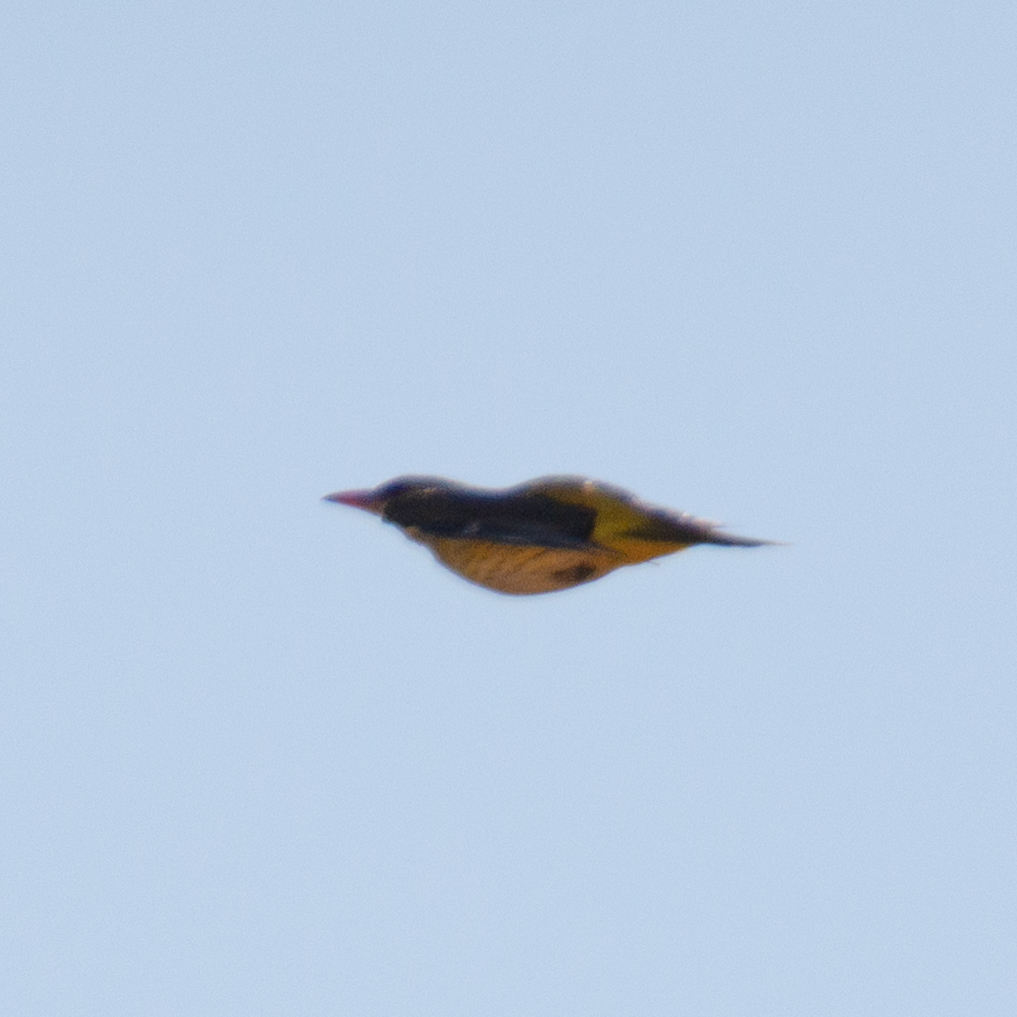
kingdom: Animalia
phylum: Chordata
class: Aves
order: Passeriformes
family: Oriolidae
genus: Oriolus
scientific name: Oriolus oriolus
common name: Eurasian golden oriole
